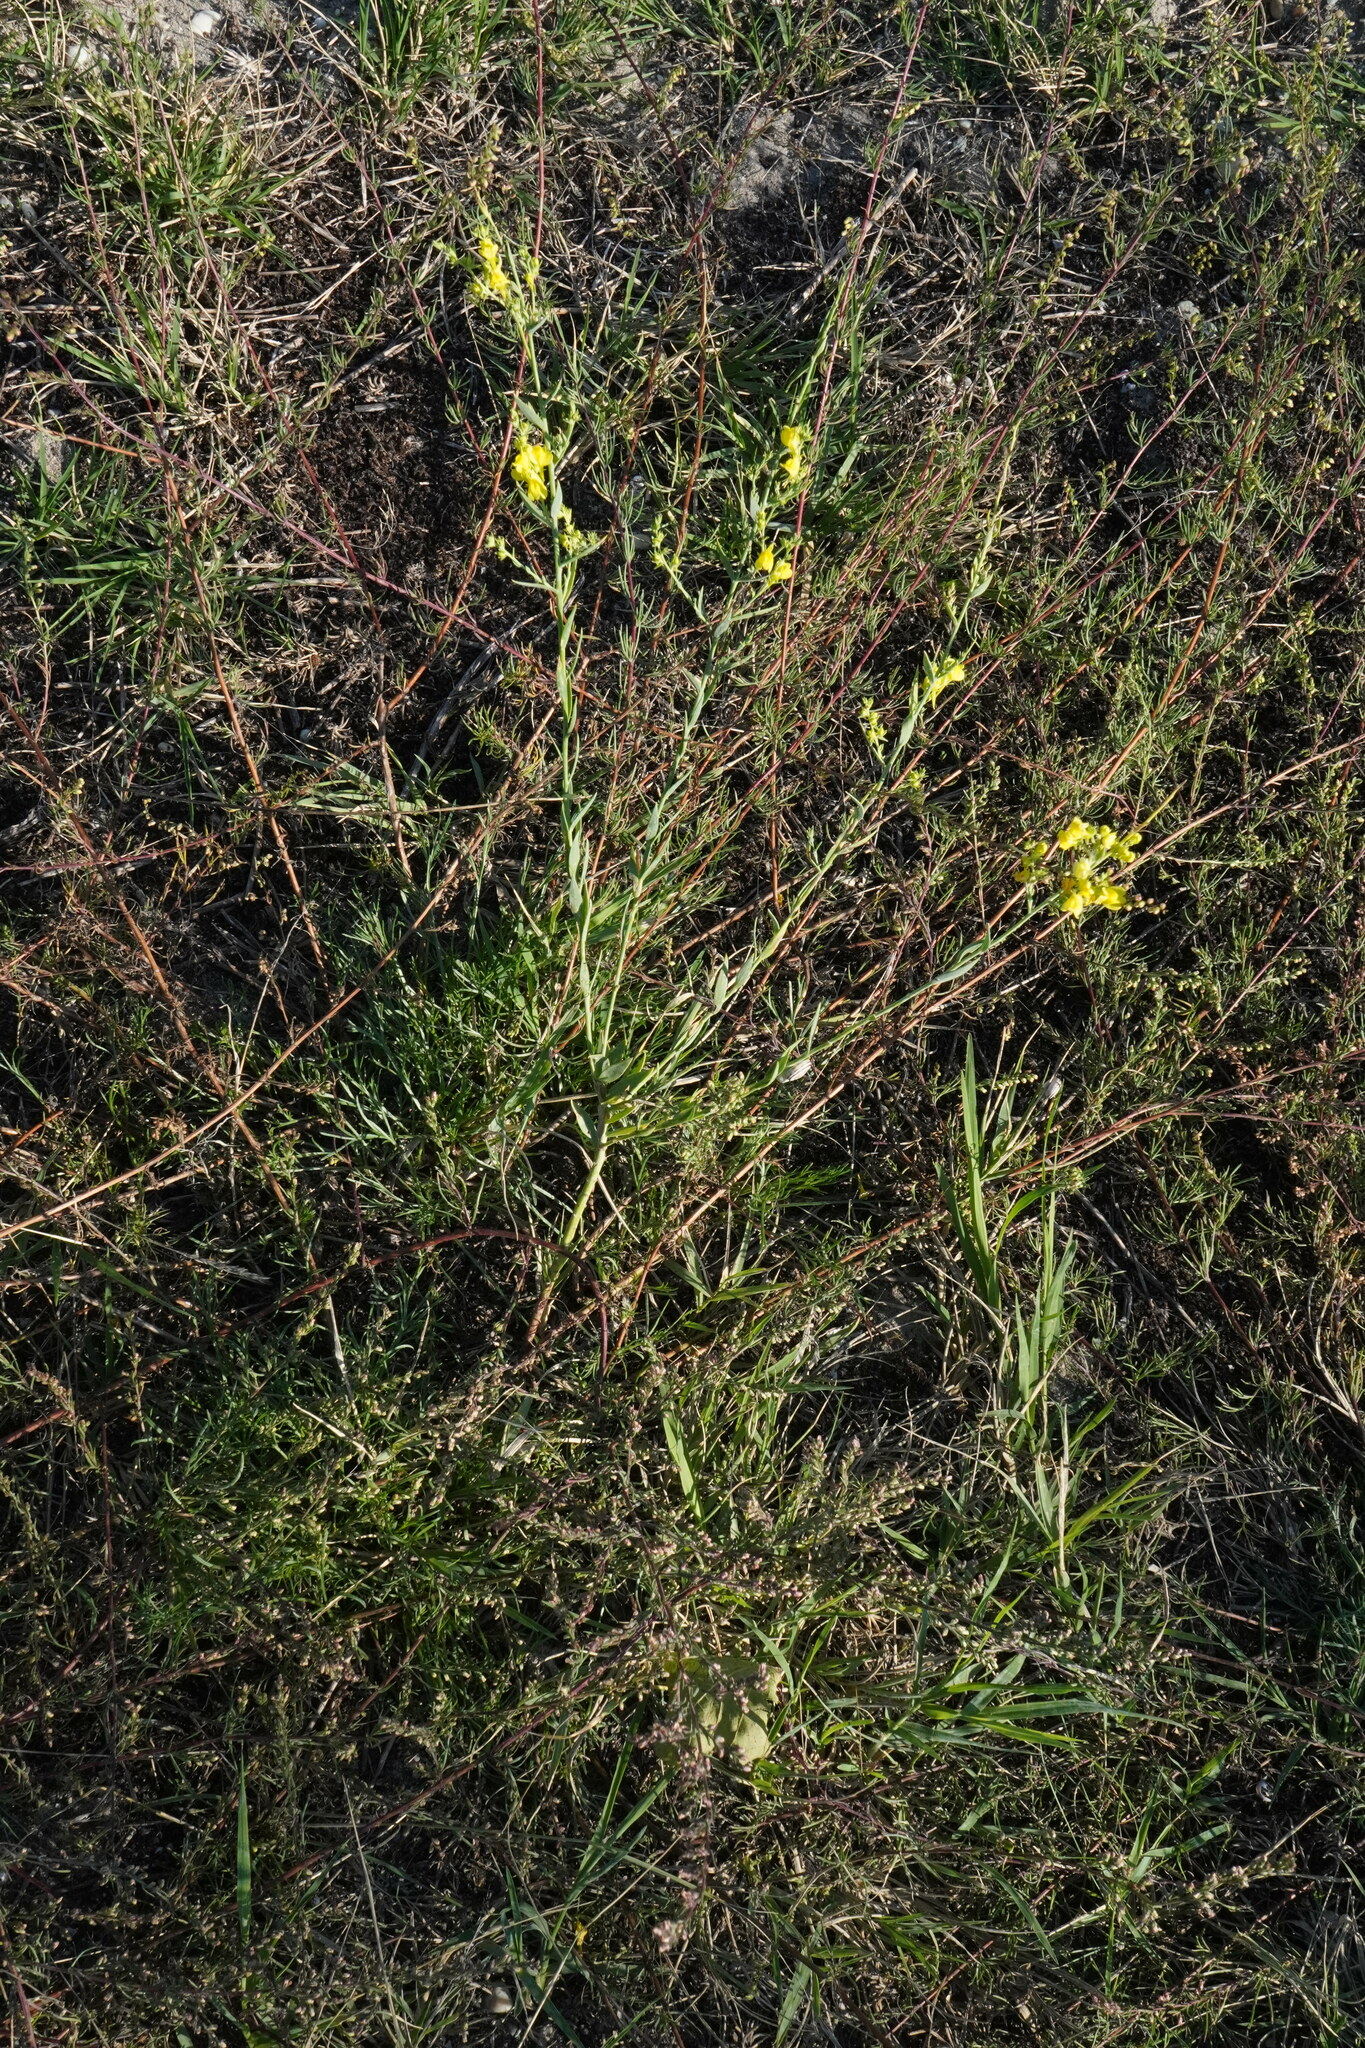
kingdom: Plantae
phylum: Tracheophyta
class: Magnoliopsida
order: Lamiales
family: Plantaginaceae
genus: Linaria
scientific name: Linaria genistifolia
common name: Broomleaf toadflax
